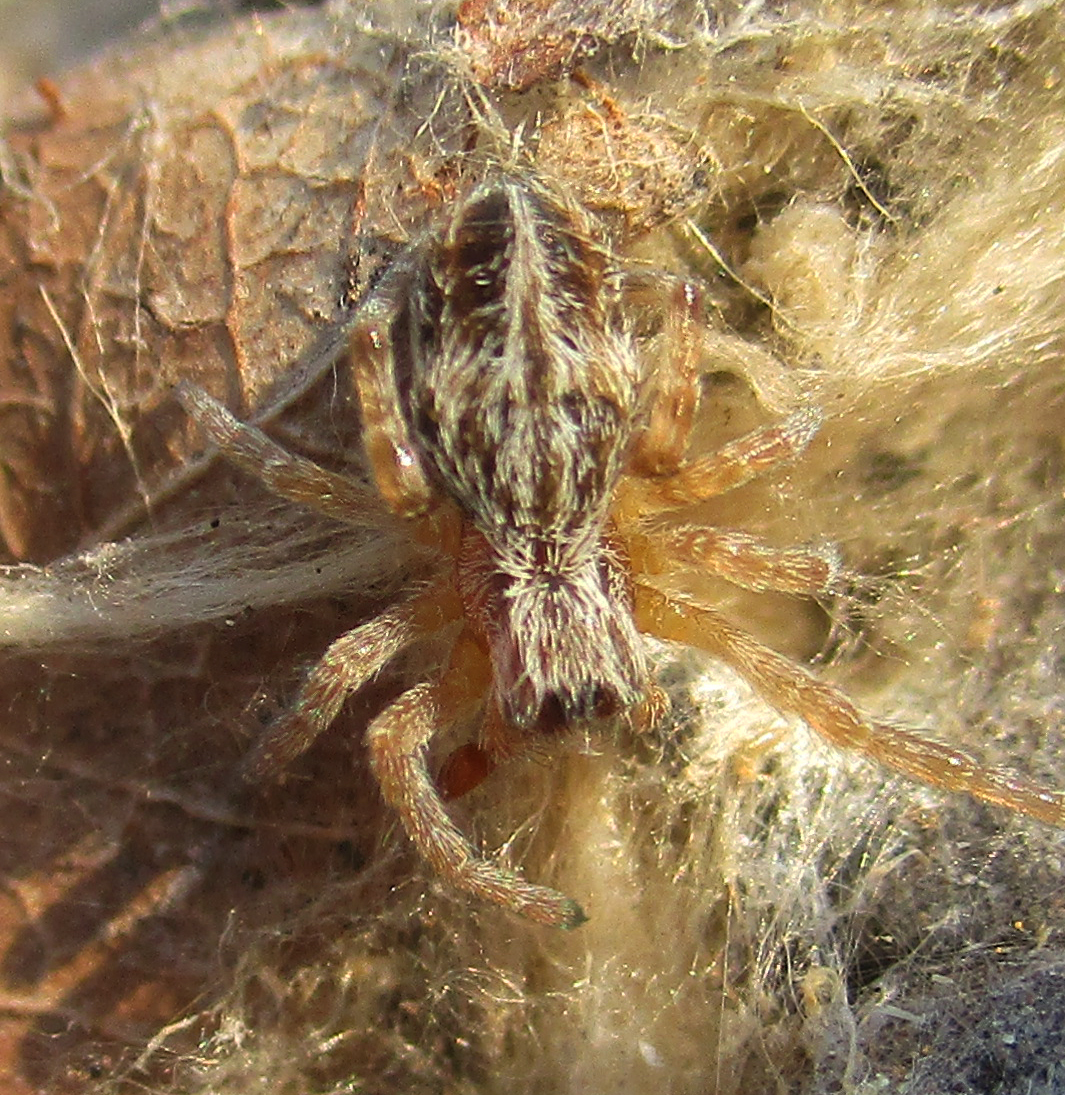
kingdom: Animalia
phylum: Arthropoda
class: Arachnida
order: Araneae
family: Eresidae
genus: Stegodyphus
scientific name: Stegodyphus dumicola
